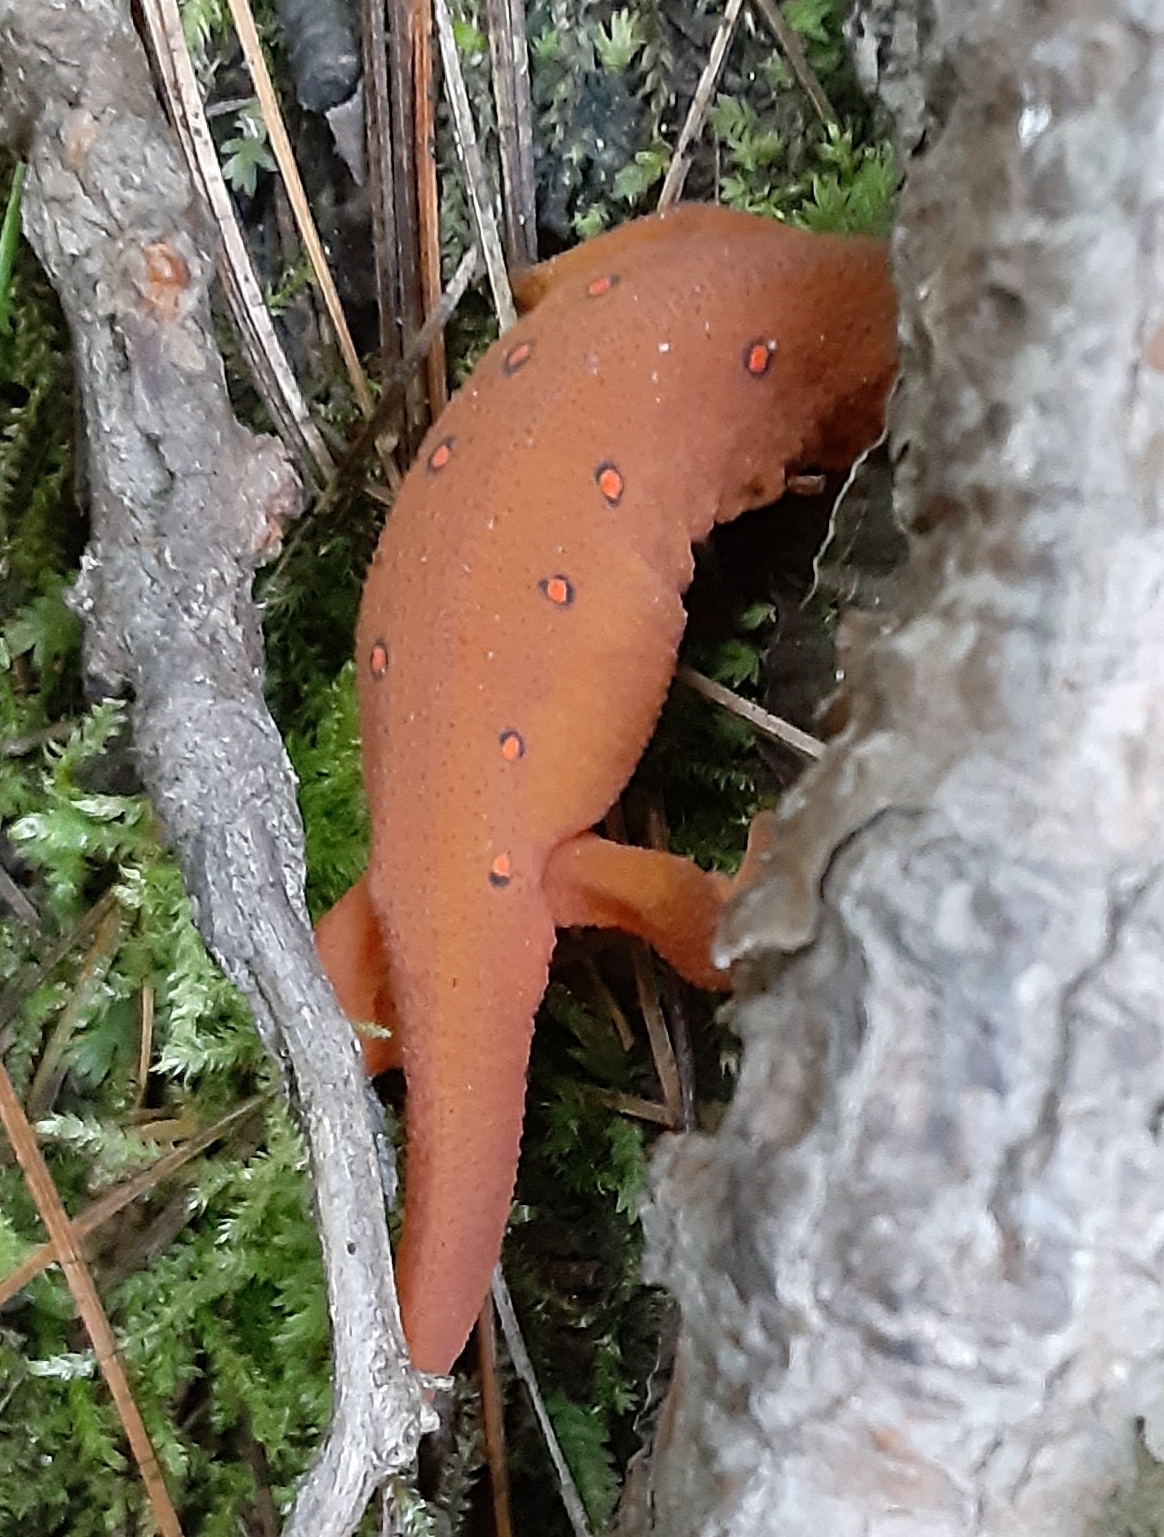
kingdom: Animalia
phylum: Chordata
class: Amphibia
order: Caudata
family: Salamandridae
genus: Notophthalmus
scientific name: Notophthalmus viridescens
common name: Eastern newt
